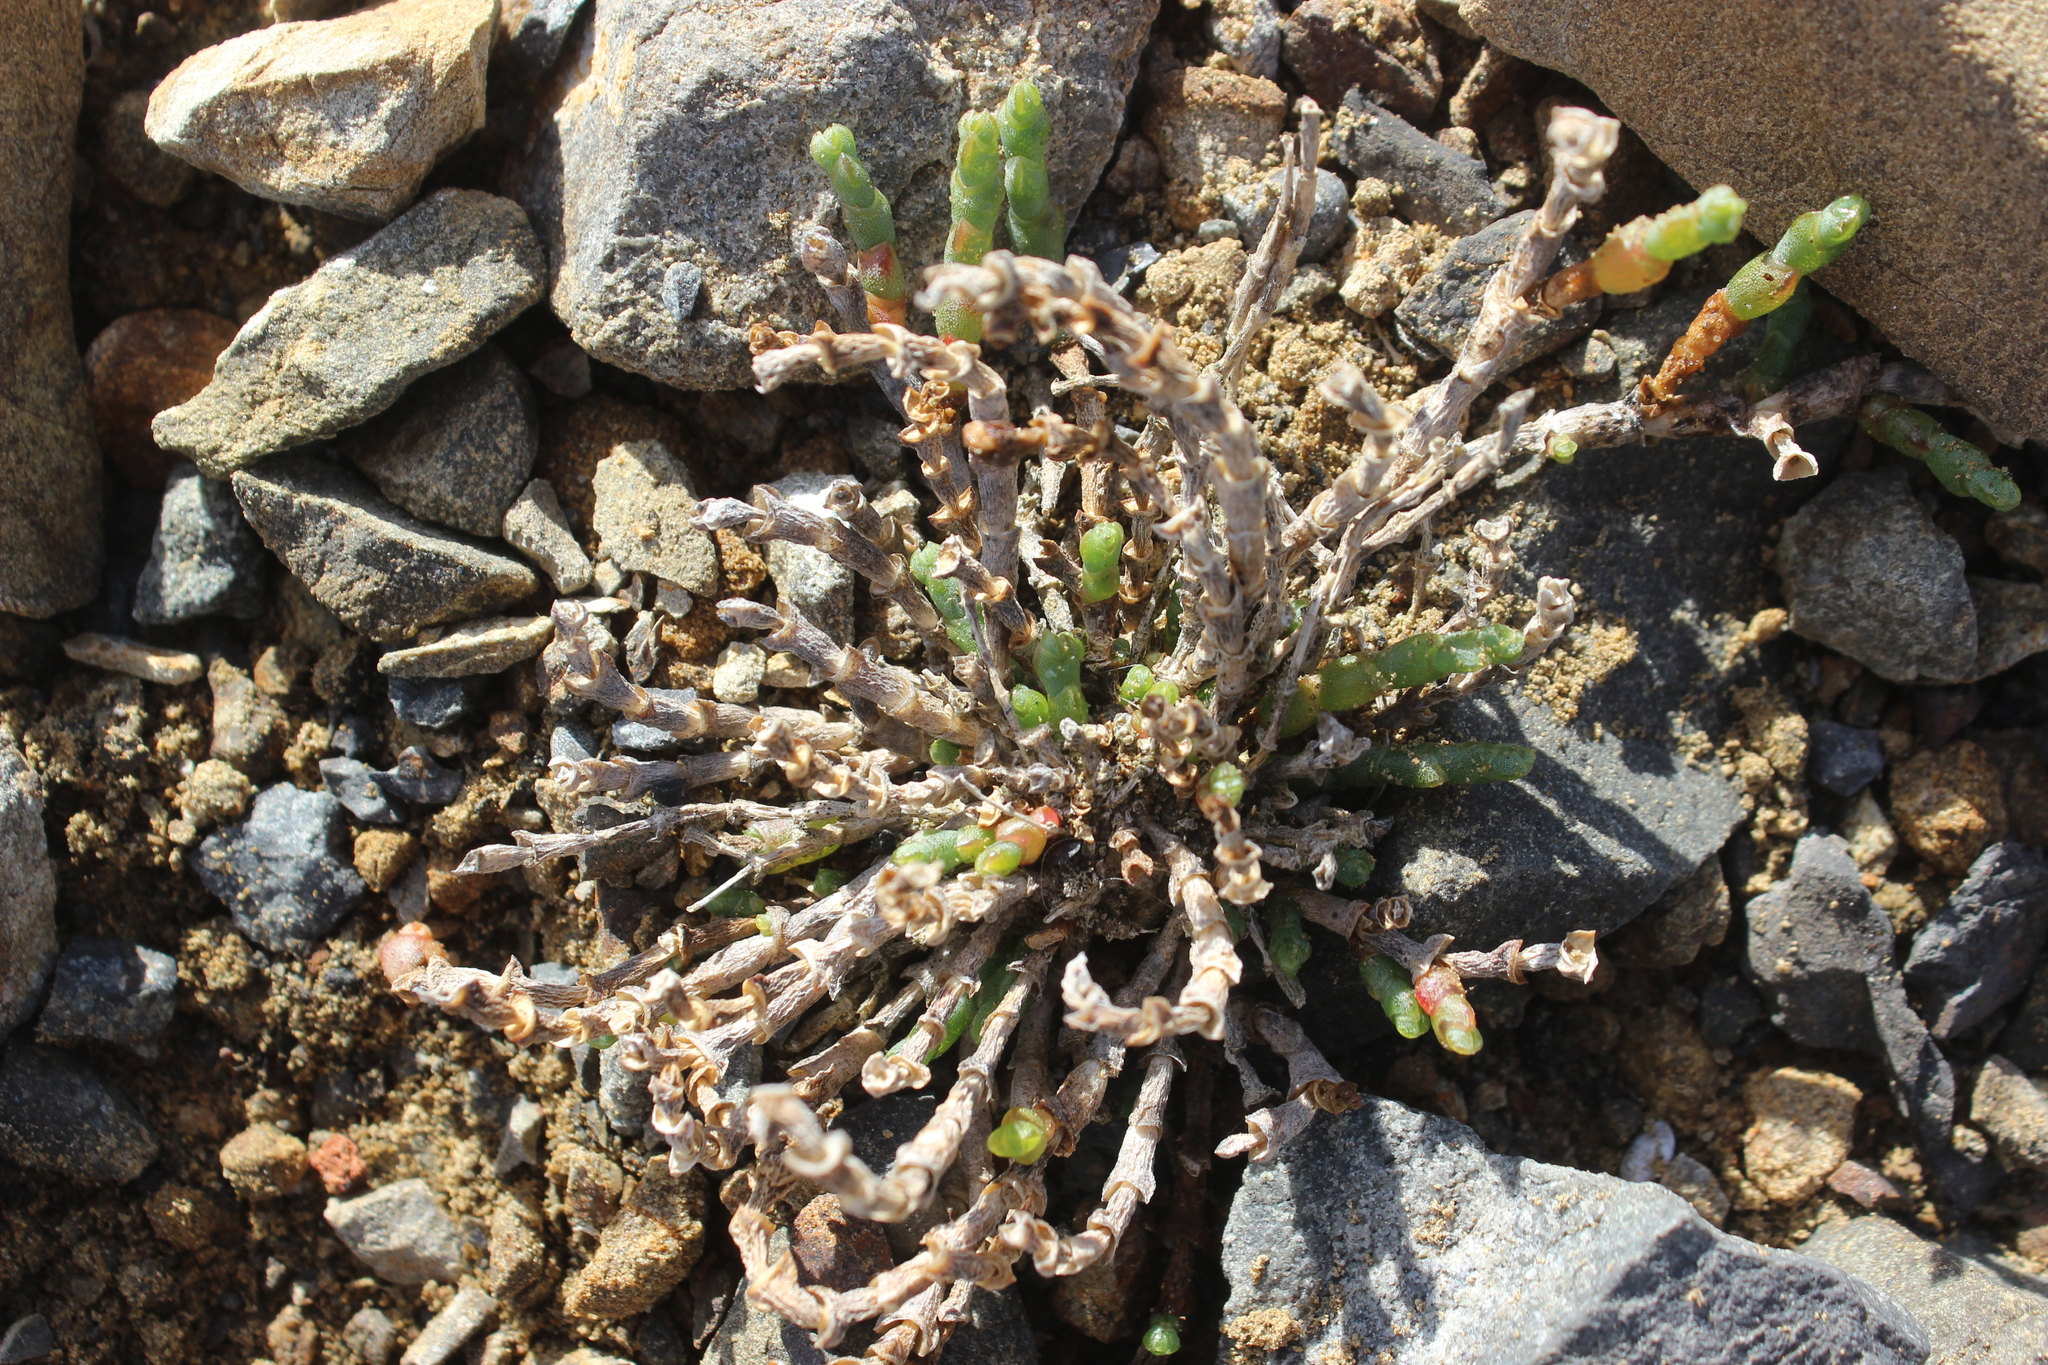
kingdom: Plantae
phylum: Tracheophyta
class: Magnoliopsida
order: Caryophyllales
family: Amaranthaceae
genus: Salicornia
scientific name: Salicornia quinqueflora
